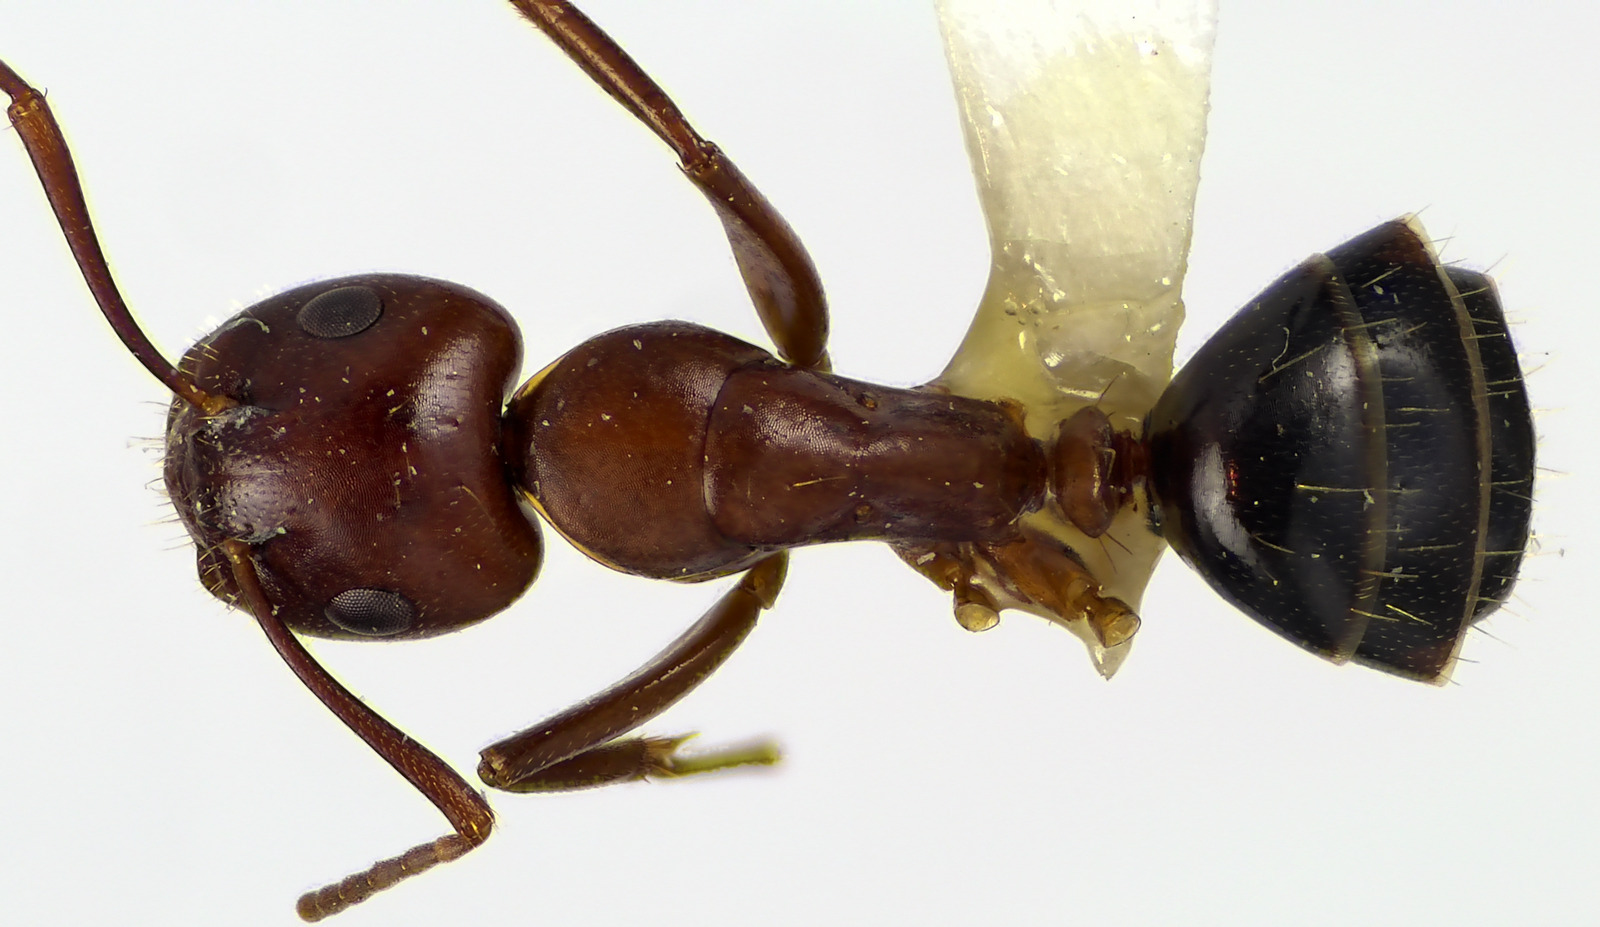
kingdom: Animalia
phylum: Arthropoda
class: Insecta
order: Hymenoptera
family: Formicidae
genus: Camponotus
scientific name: Camponotus discolor
